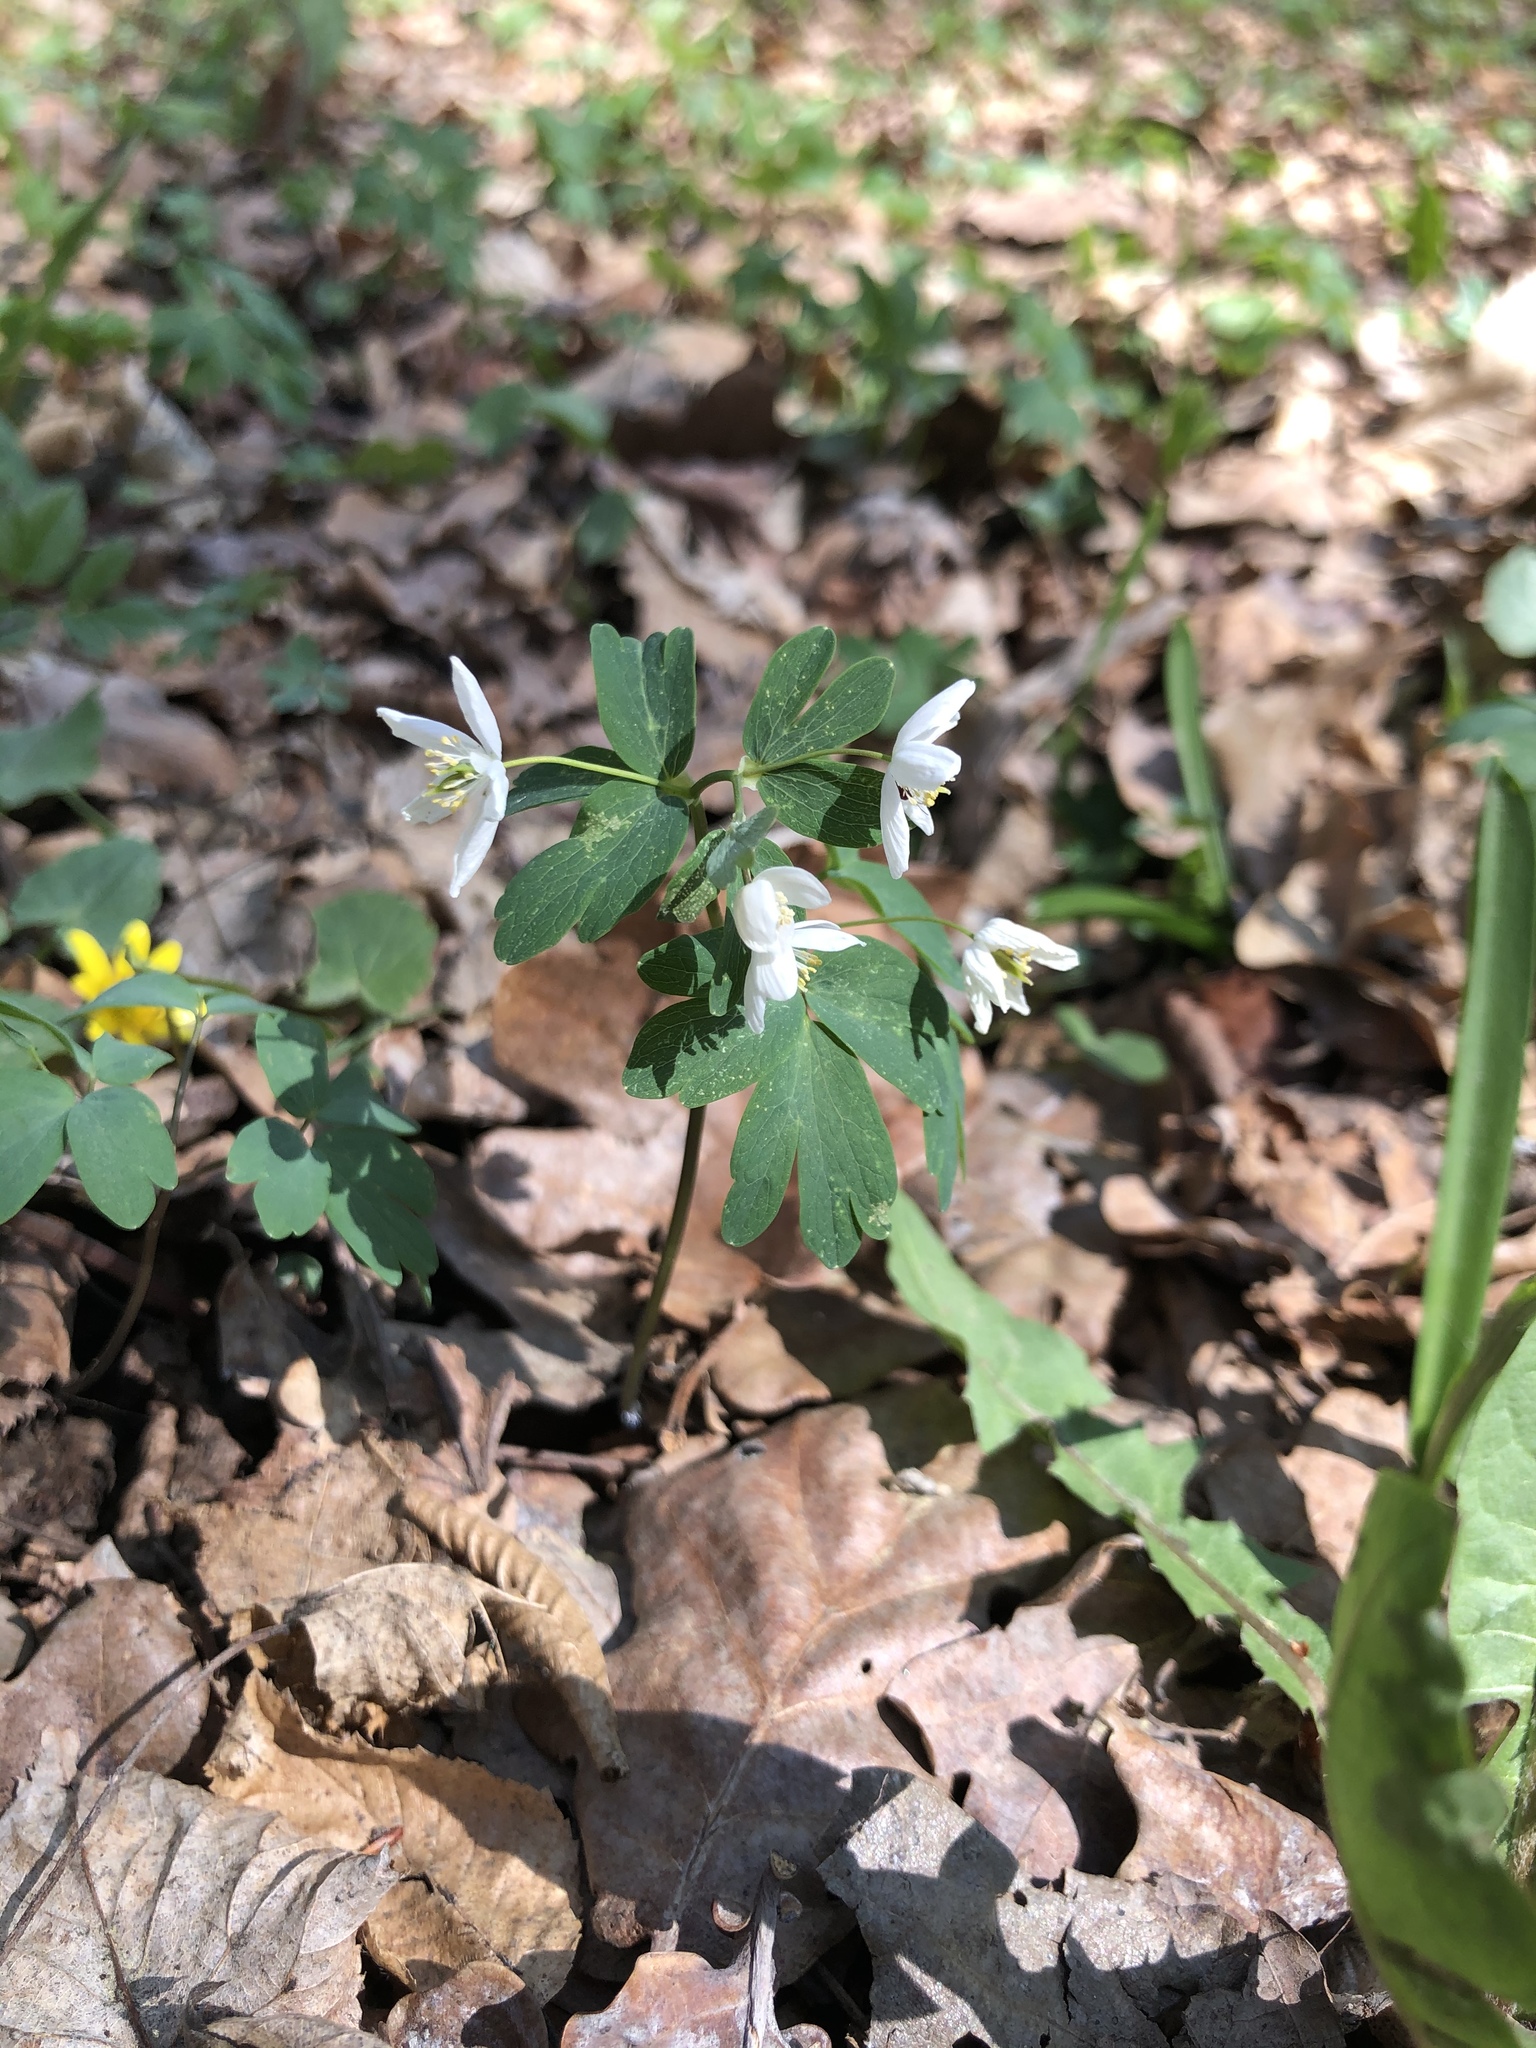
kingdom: Plantae
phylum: Tracheophyta
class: Magnoliopsida
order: Ranunculales
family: Ranunculaceae
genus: Isopyrum
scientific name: Isopyrum thalictroides
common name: Isopyrum
